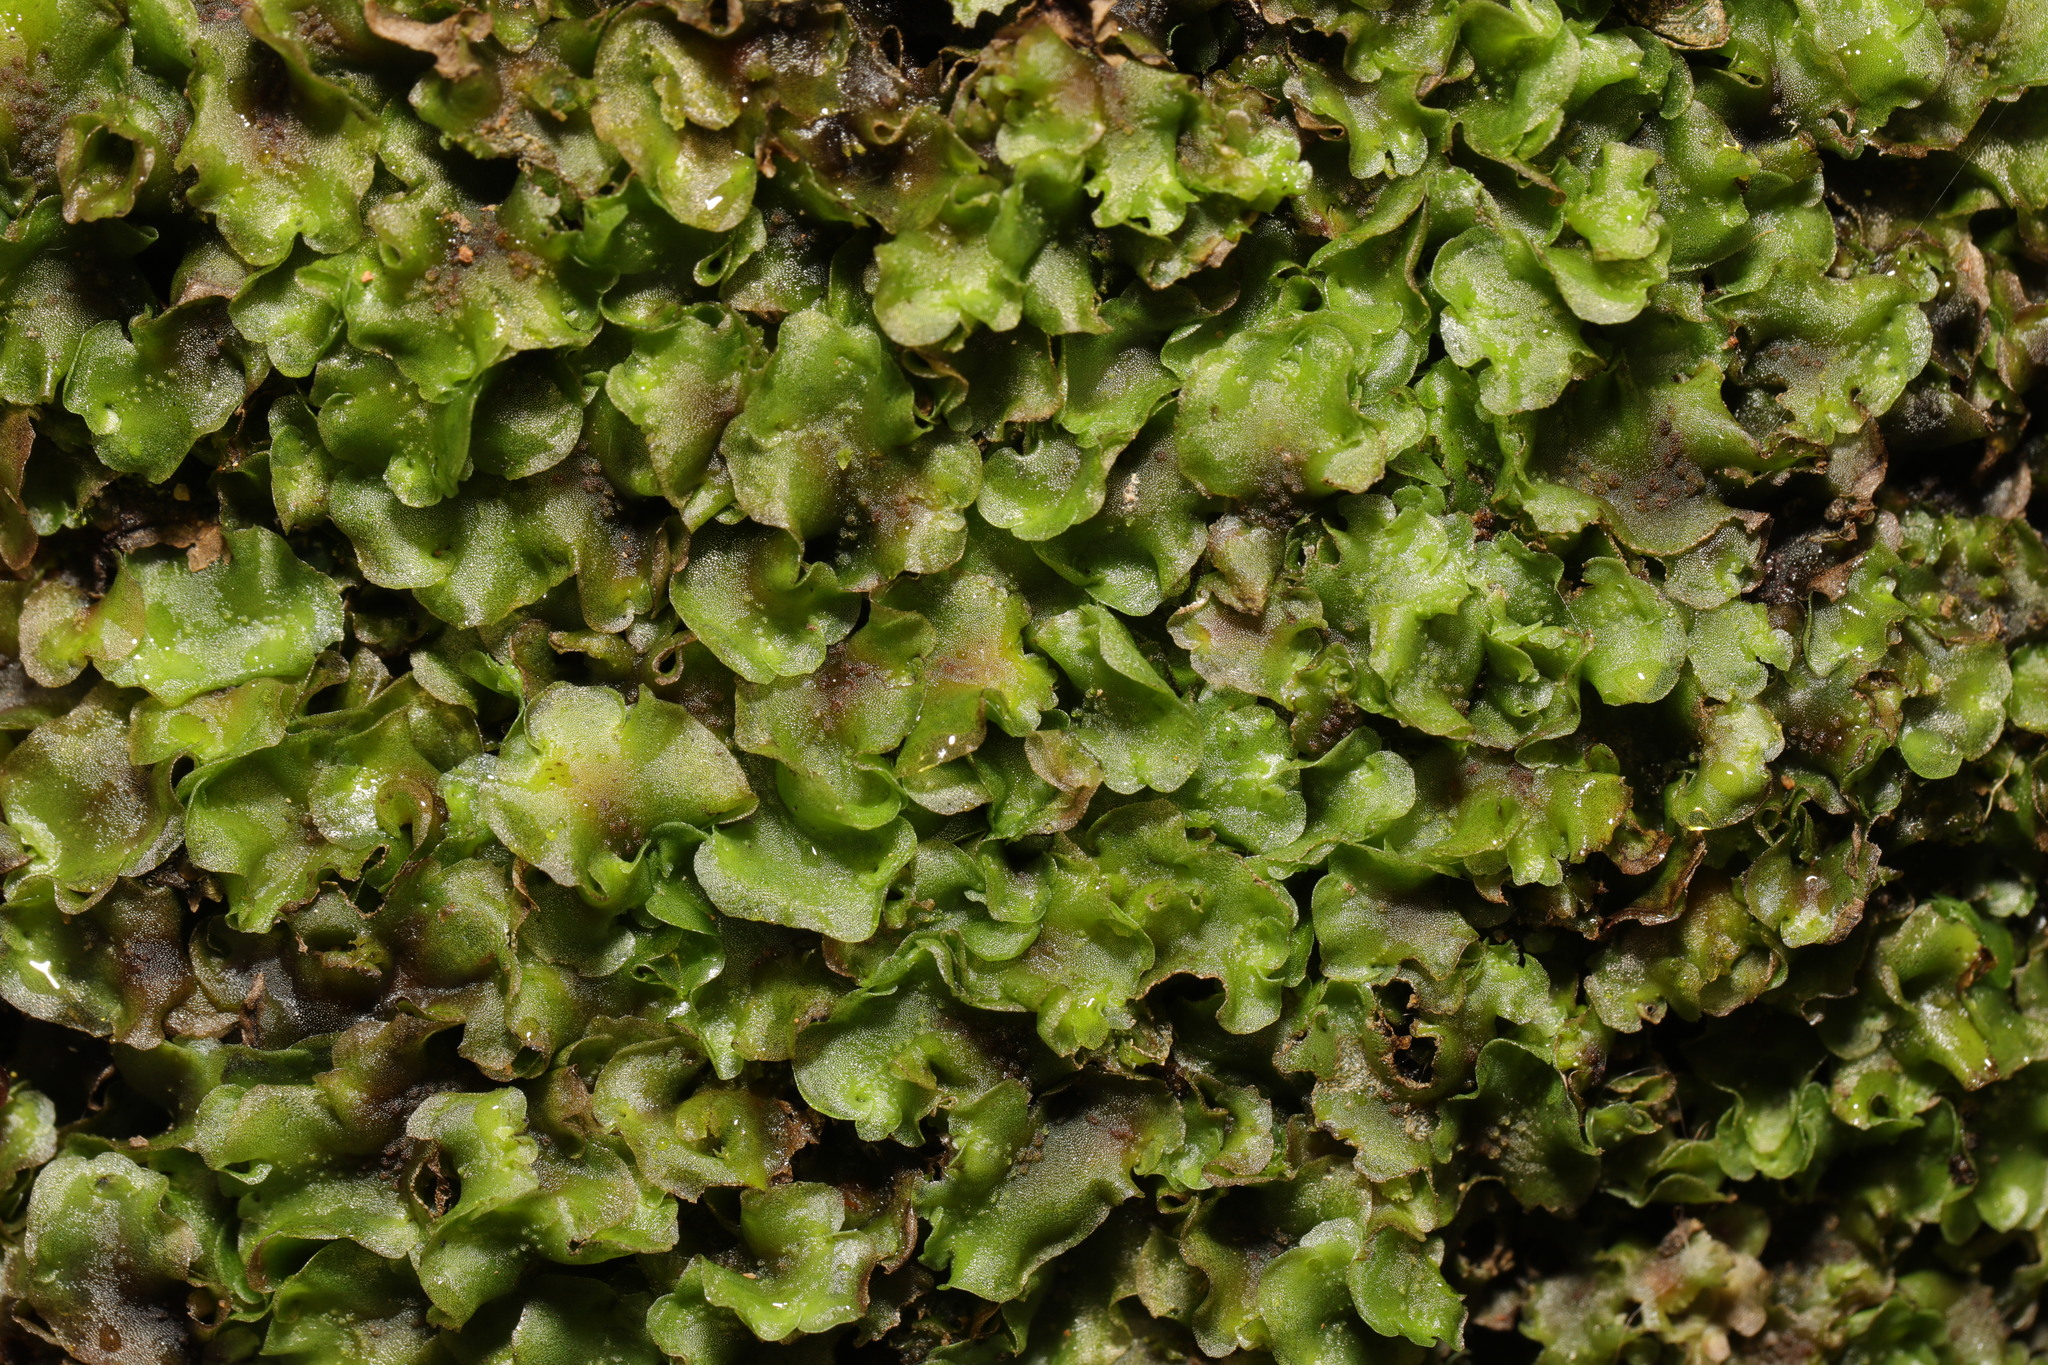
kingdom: Plantae
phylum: Marchantiophyta
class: Jungermanniopsida
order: Pelliales
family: Pelliaceae
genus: Pellia
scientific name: Pellia neesiana
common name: Nees  pellia
